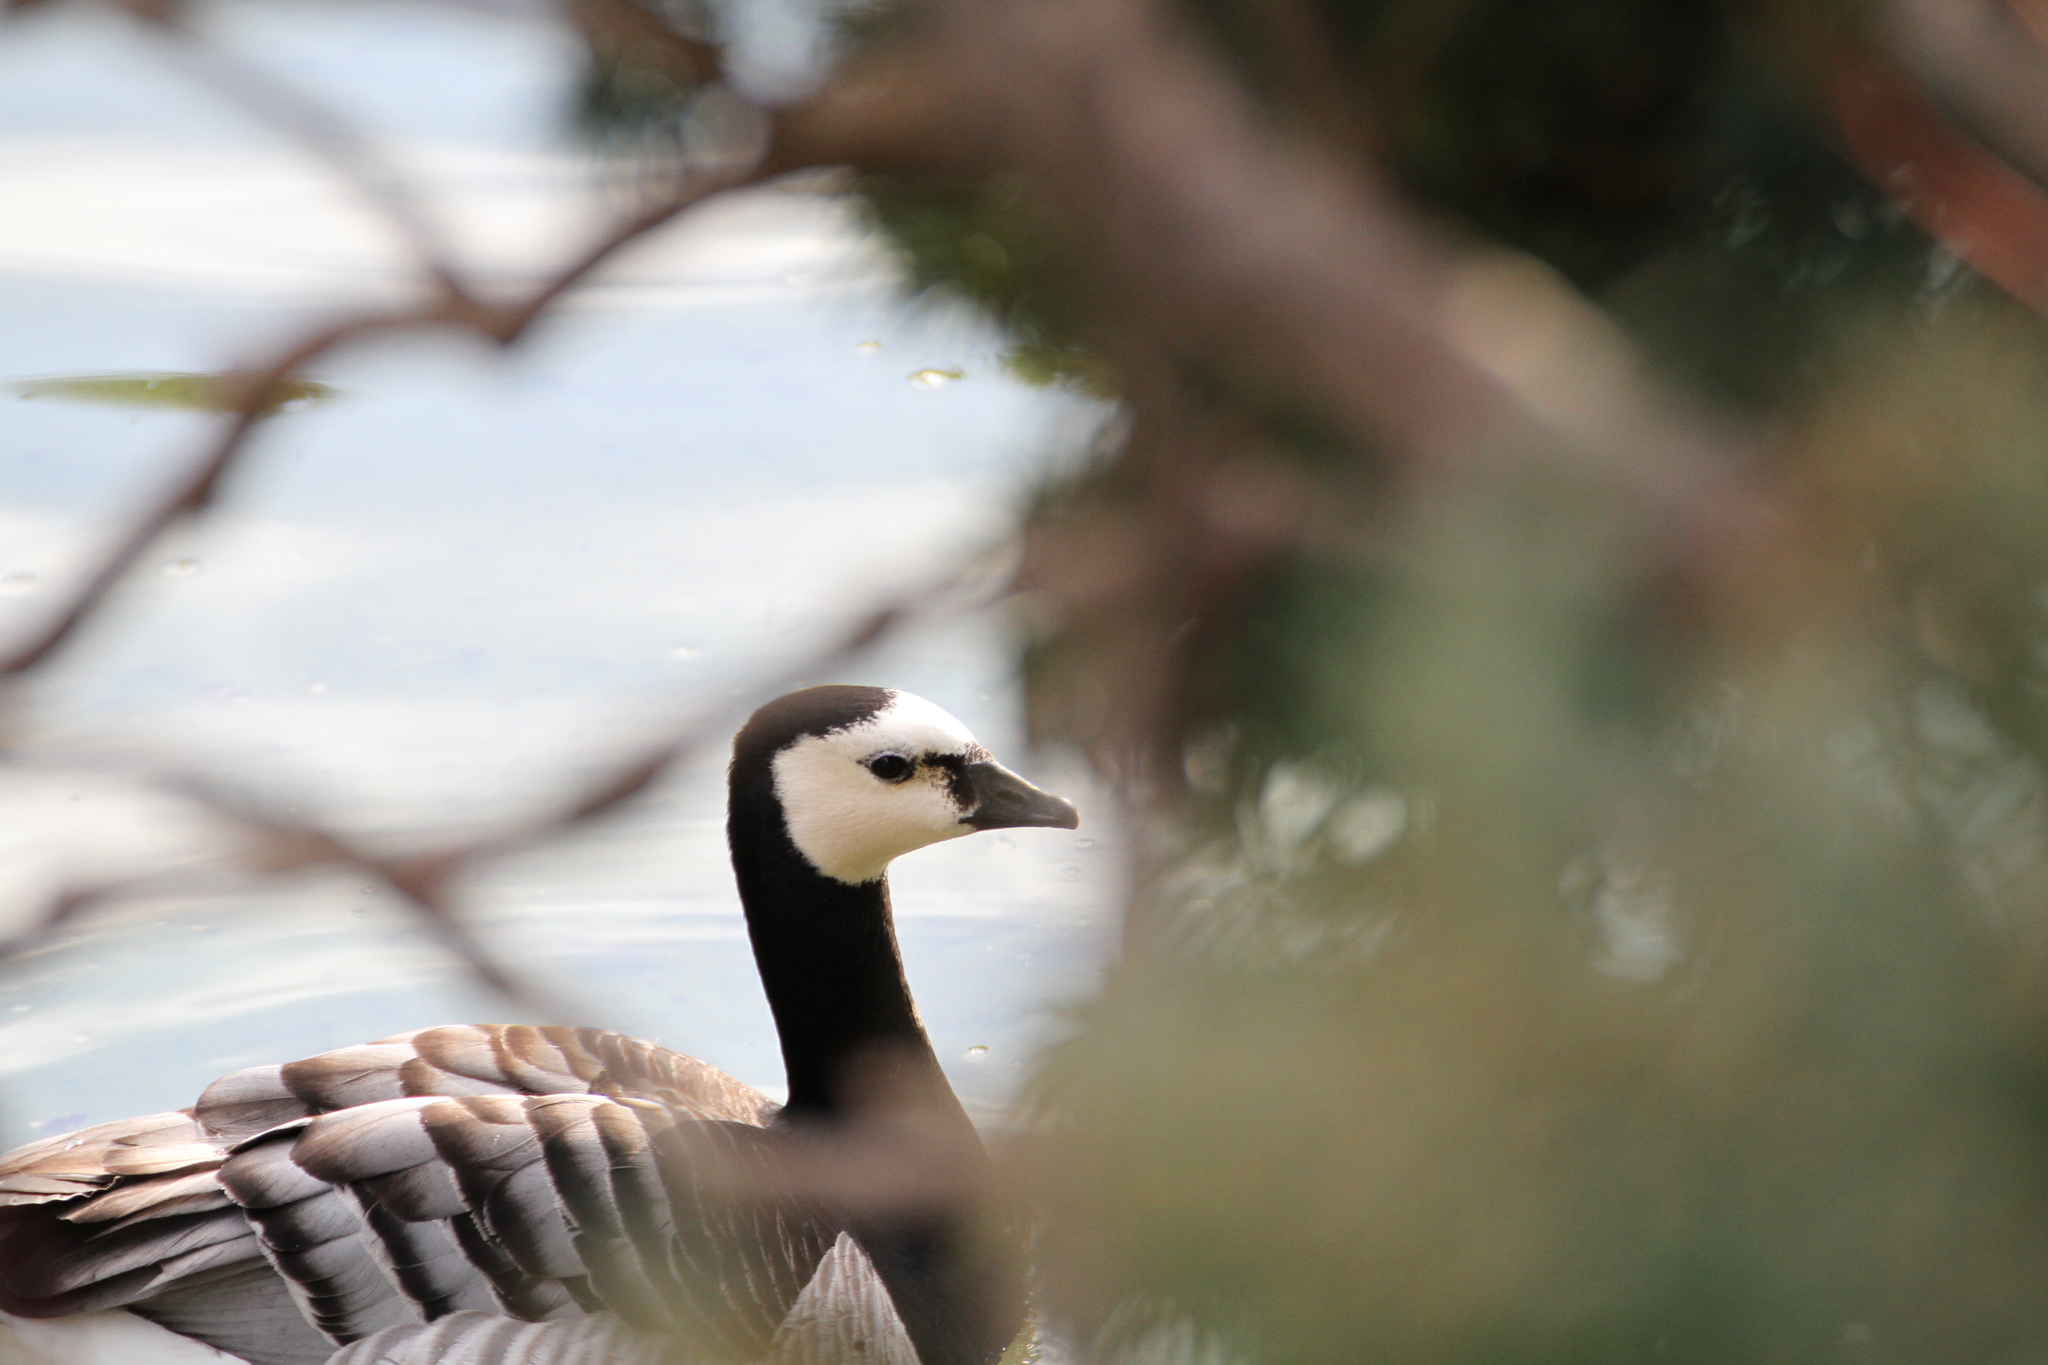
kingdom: Animalia
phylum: Chordata
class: Aves
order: Anseriformes
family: Anatidae
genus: Branta
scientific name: Branta leucopsis
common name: Barnacle goose
